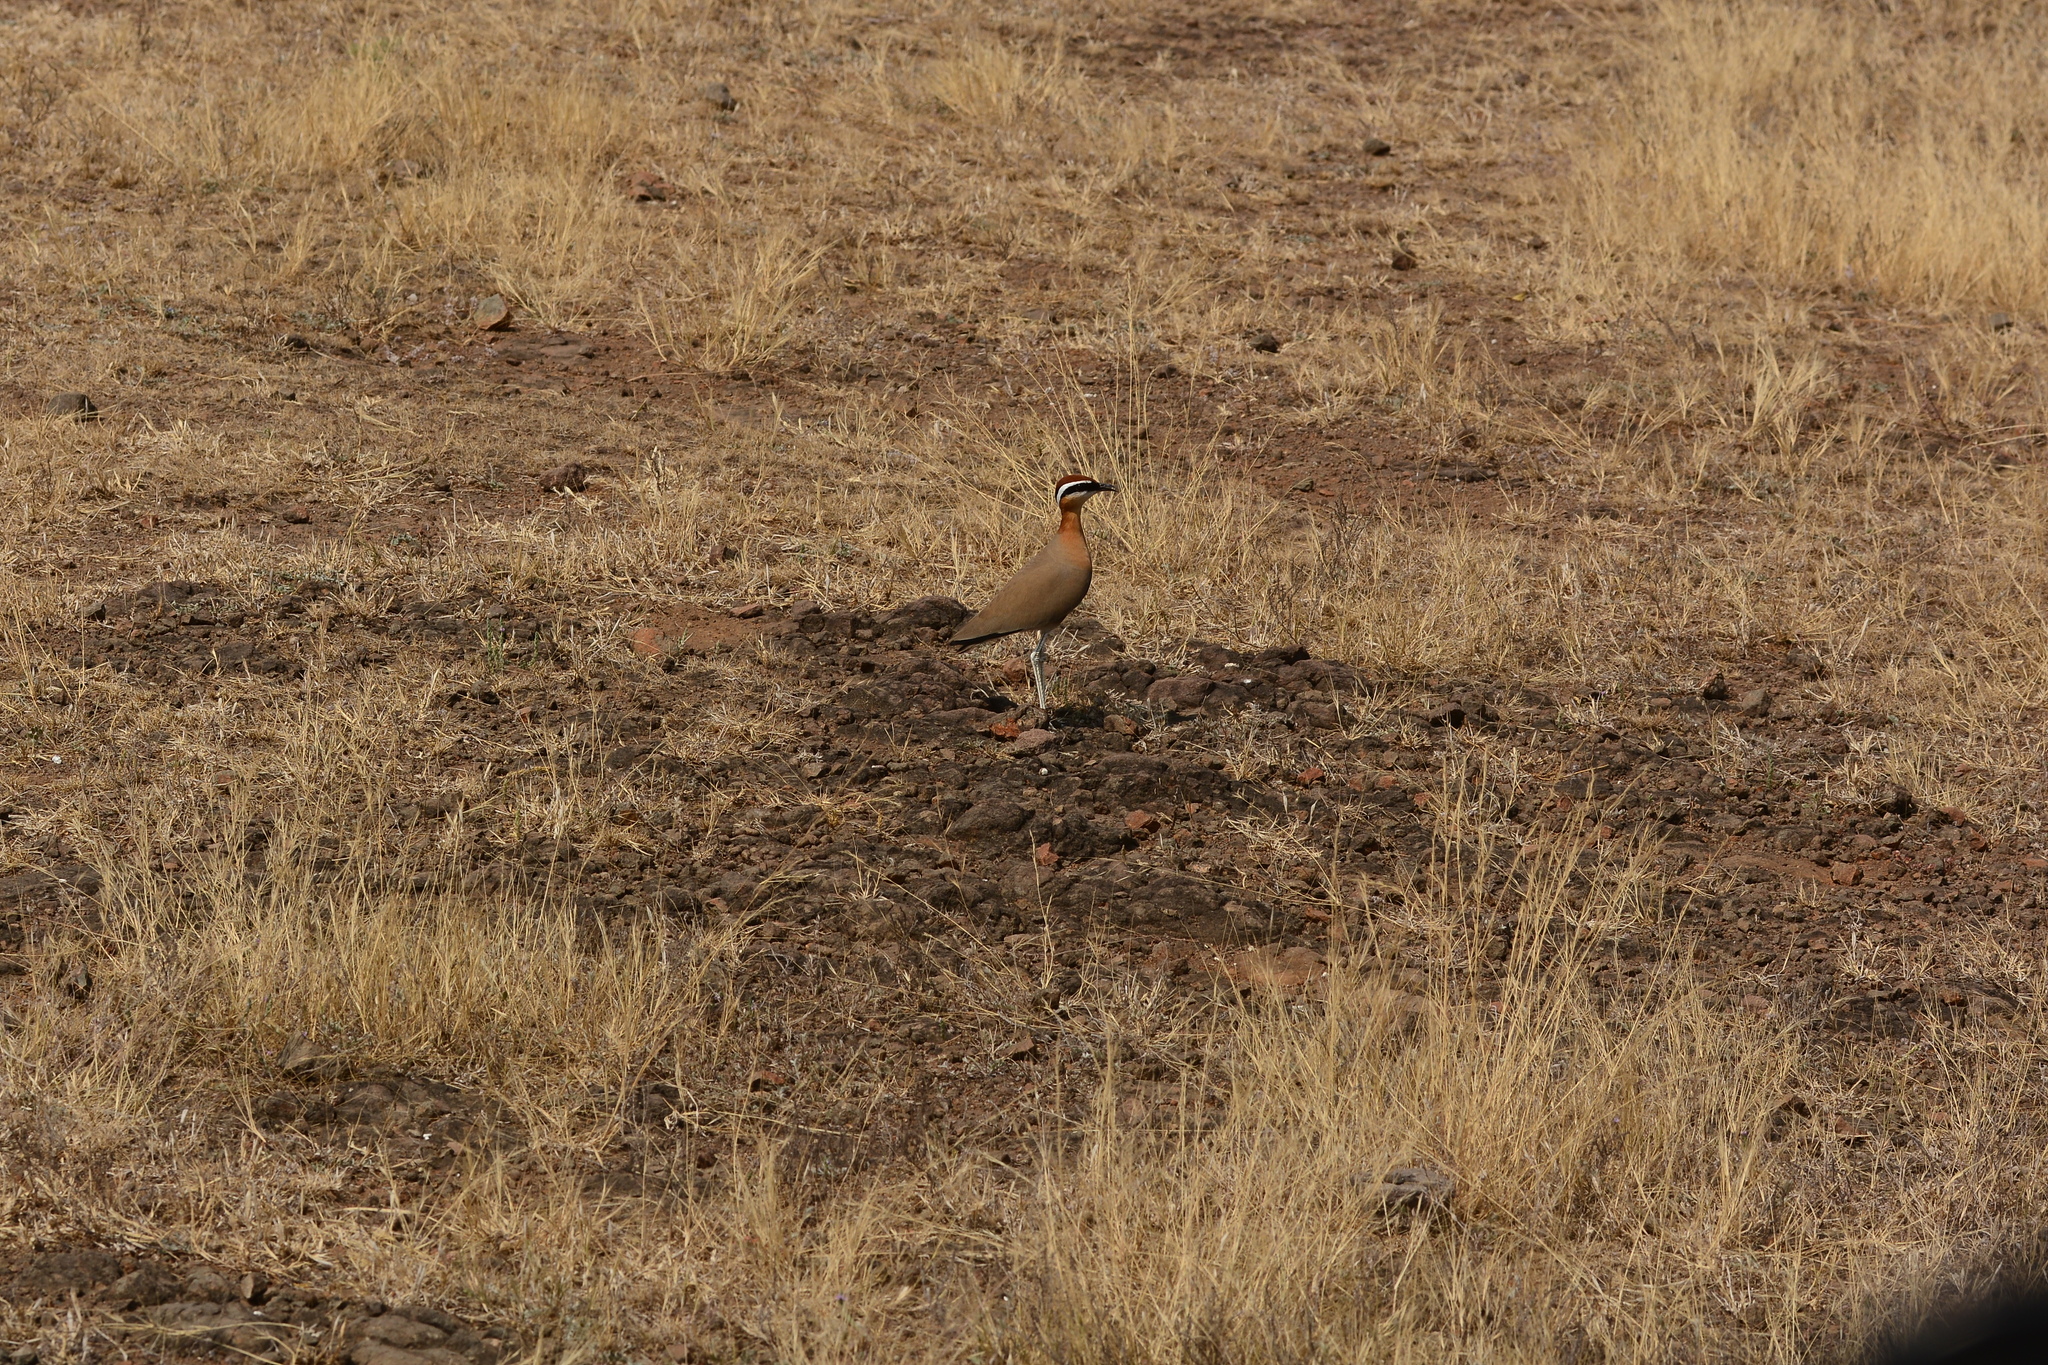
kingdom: Animalia
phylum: Chordata
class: Aves
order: Charadriiformes
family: Glareolidae
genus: Cursorius
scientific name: Cursorius coromandelicus
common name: Indian courser
